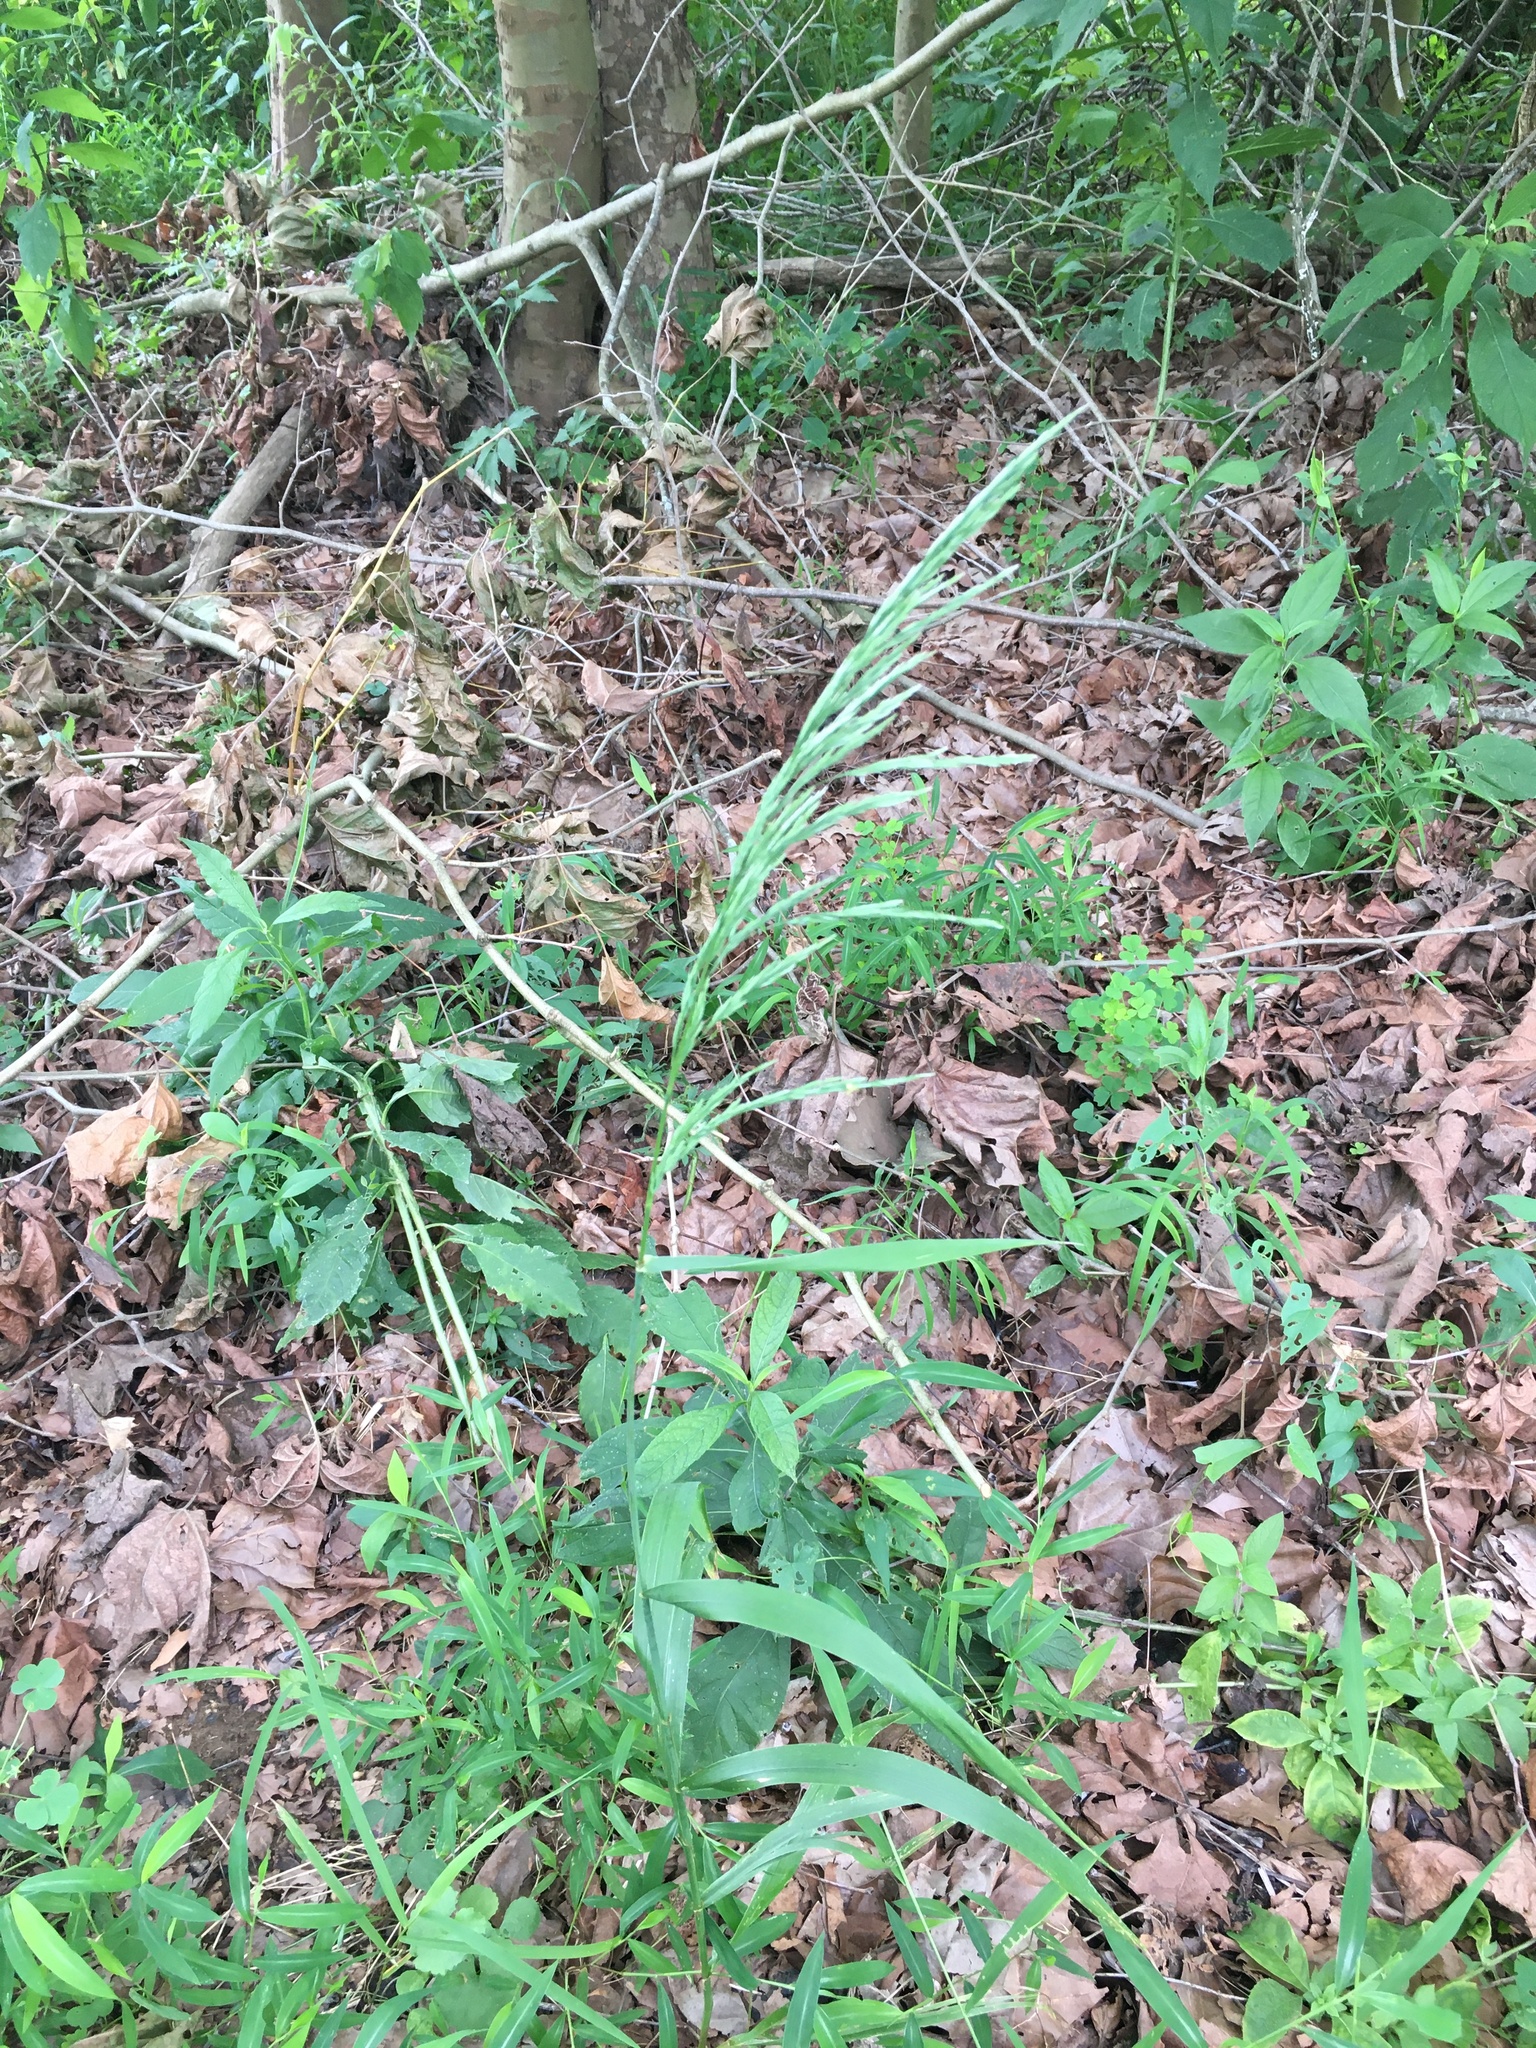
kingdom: Plantae
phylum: Tracheophyta
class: Liliopsida
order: Poales
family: Poaceae
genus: Cinna
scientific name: Cinna arundinacea
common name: Stout woodreed
